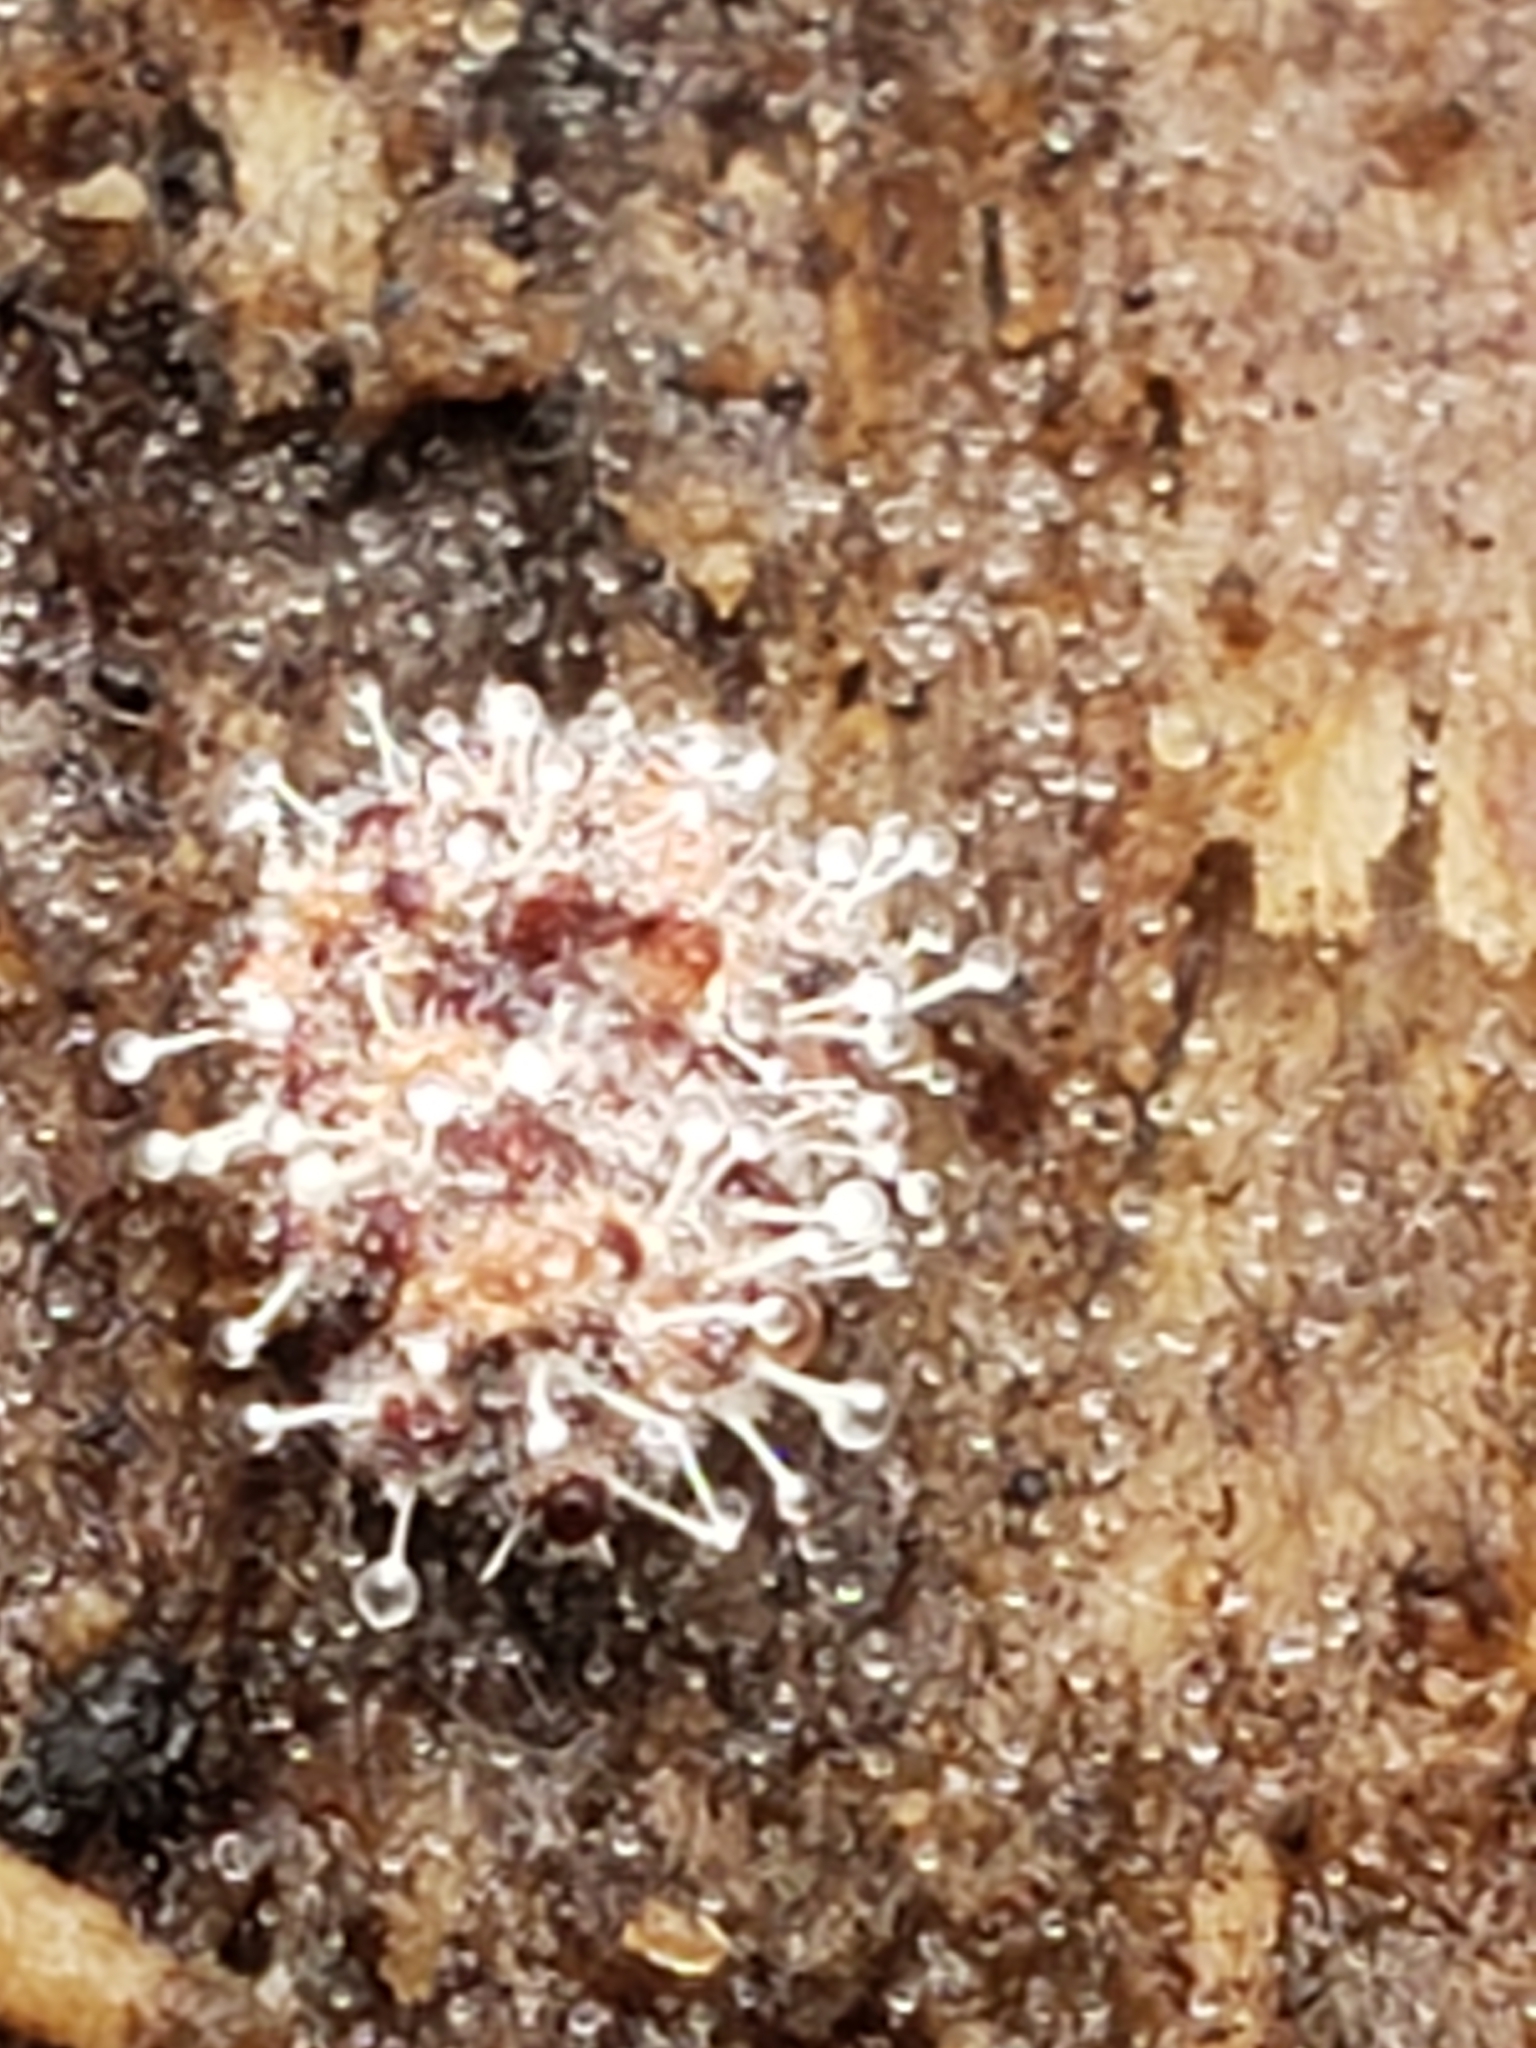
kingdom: Fungi
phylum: Ascomycota
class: Sordariomycetes
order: Hypocreales
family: Ophiocordycipitaceae
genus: Polycephalomyces
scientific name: Polycephalomyces tomentosus
